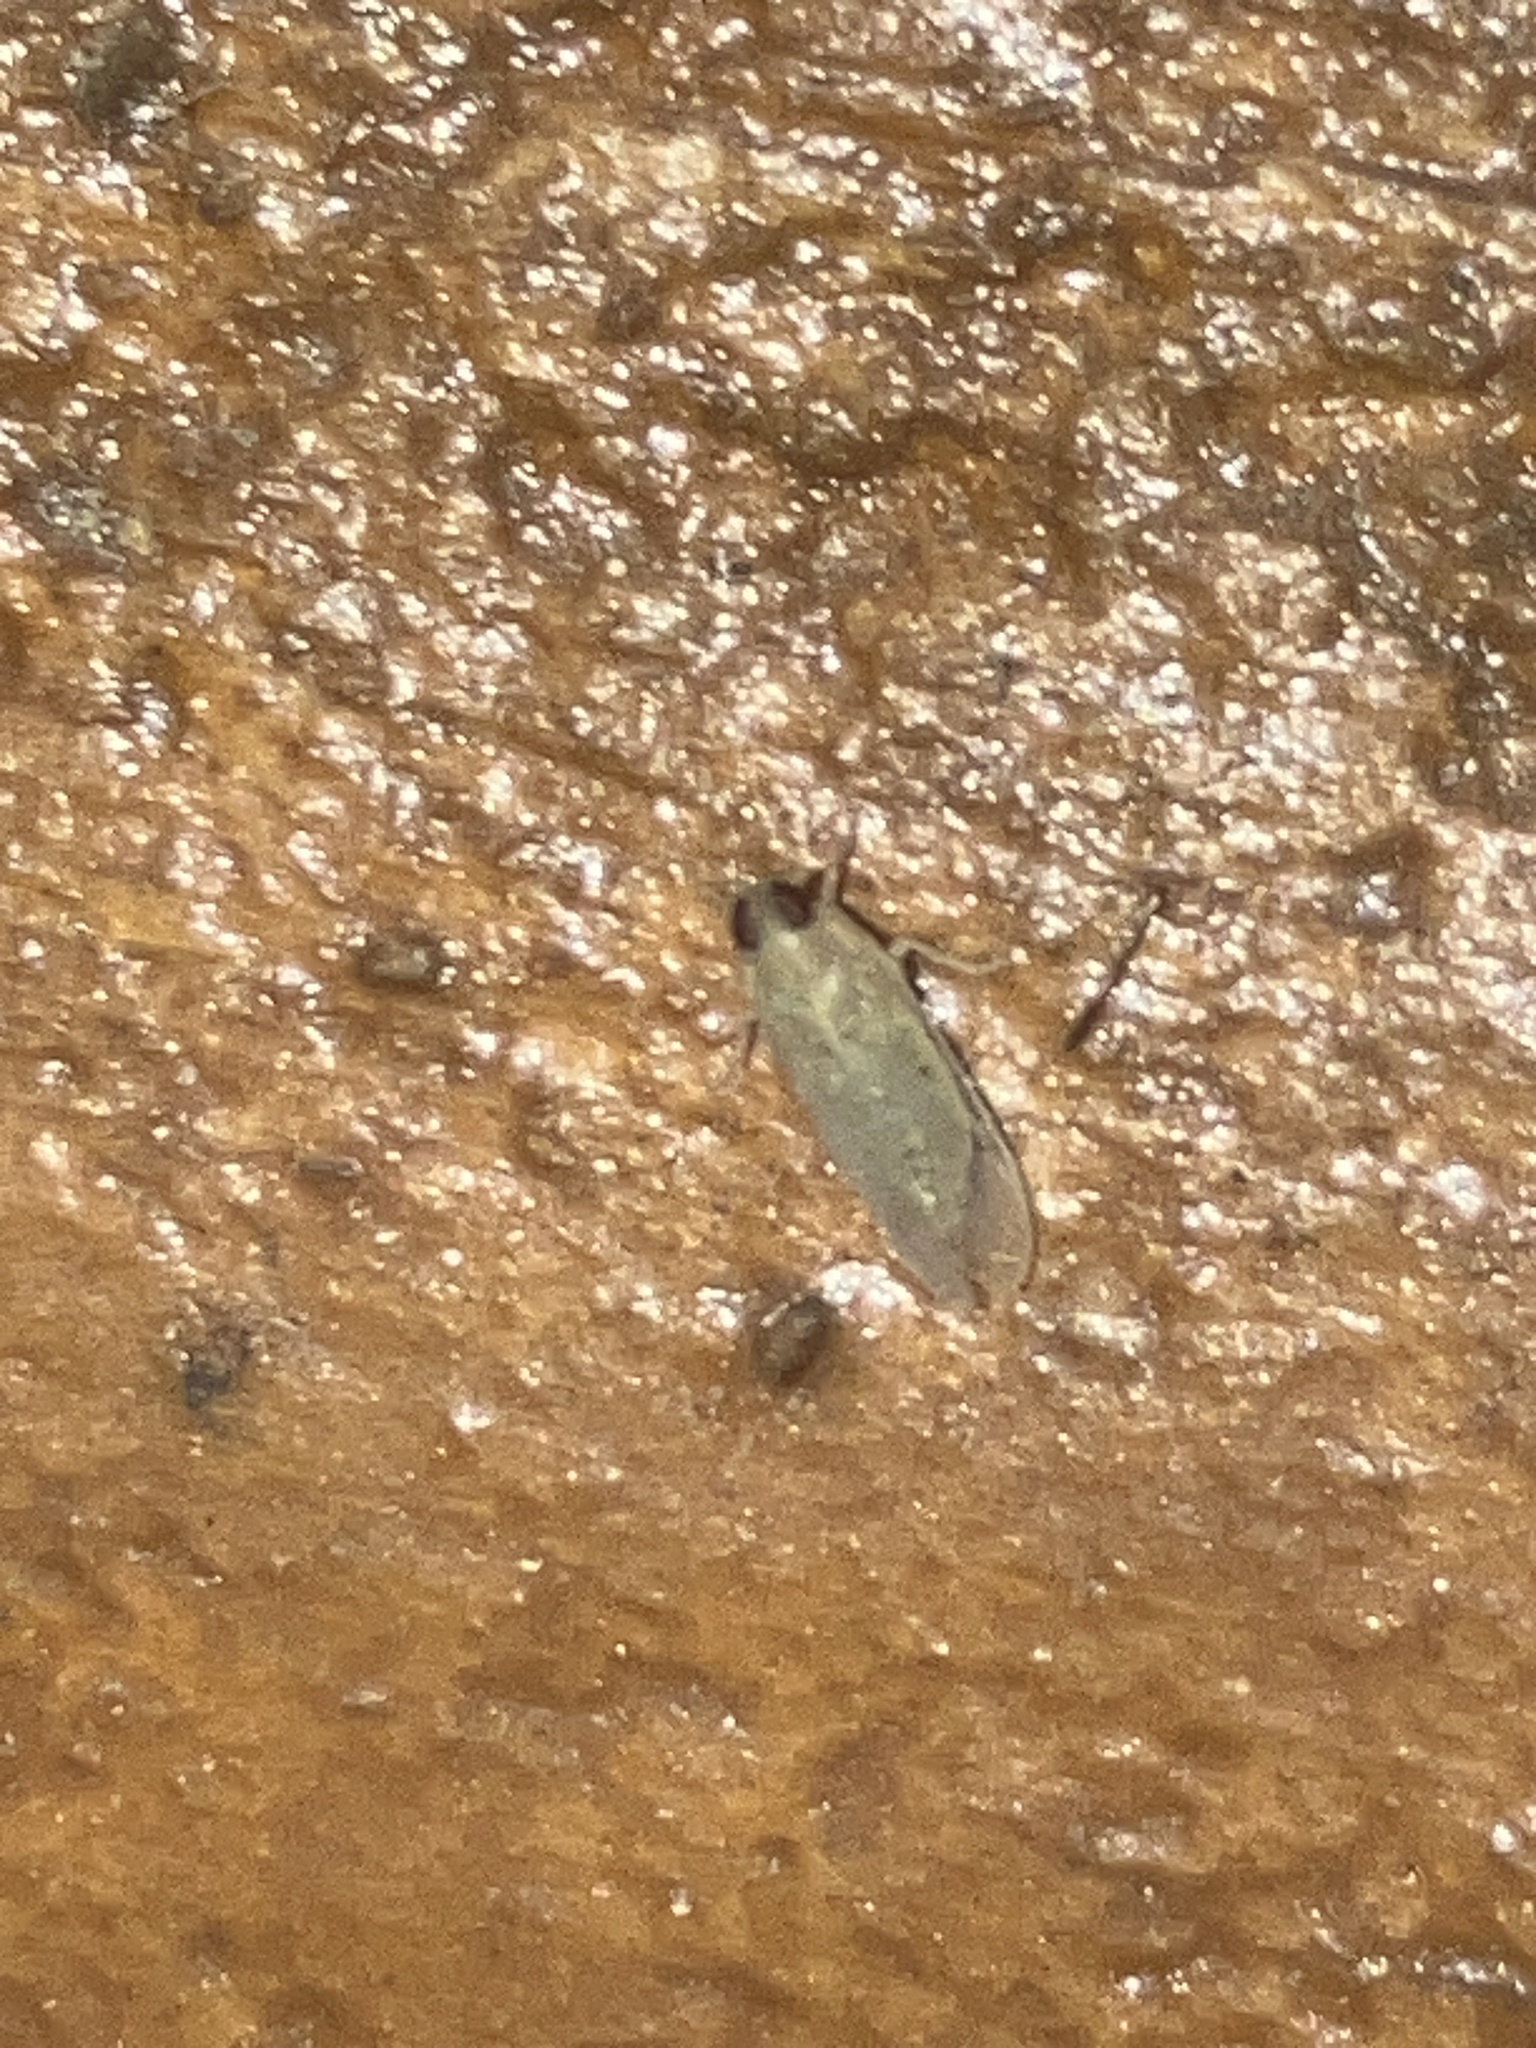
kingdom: Animalia
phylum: Arthropoda
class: Insecta
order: Hemiptera
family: Cixiidae
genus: Haplaxius
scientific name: Haplaxius
